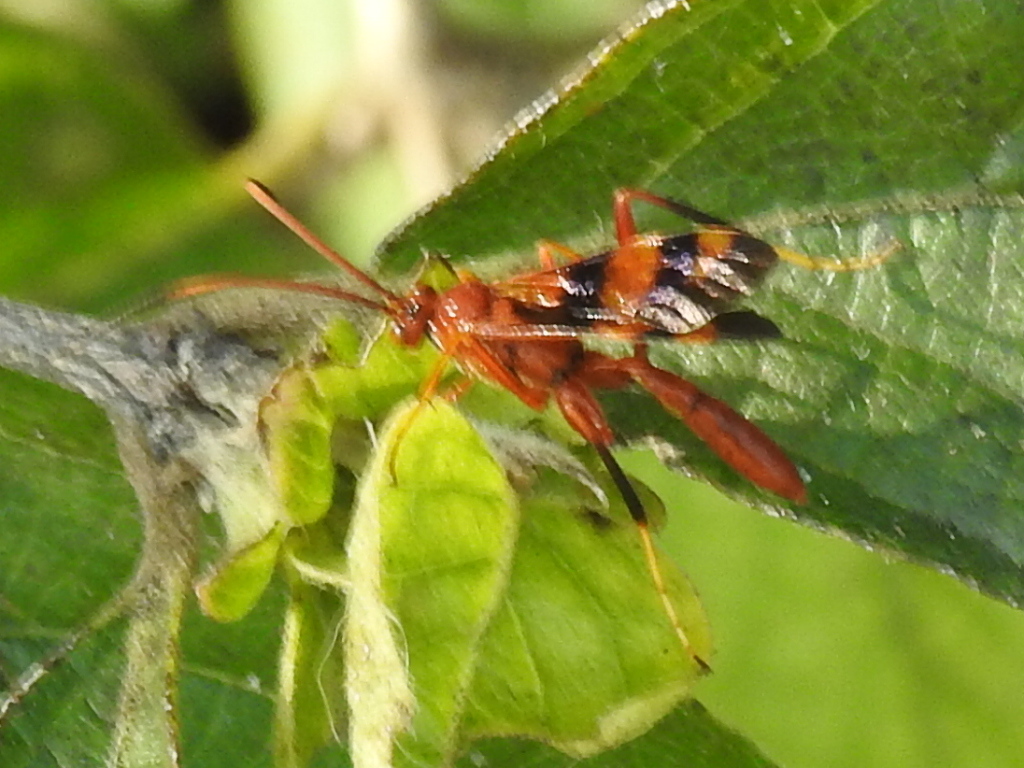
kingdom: Animalia
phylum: Arthropoda
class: Insecta
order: Hymenoptera
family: Ichneumonidae
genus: Compsocryptus
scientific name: Compsocryptus texensis
